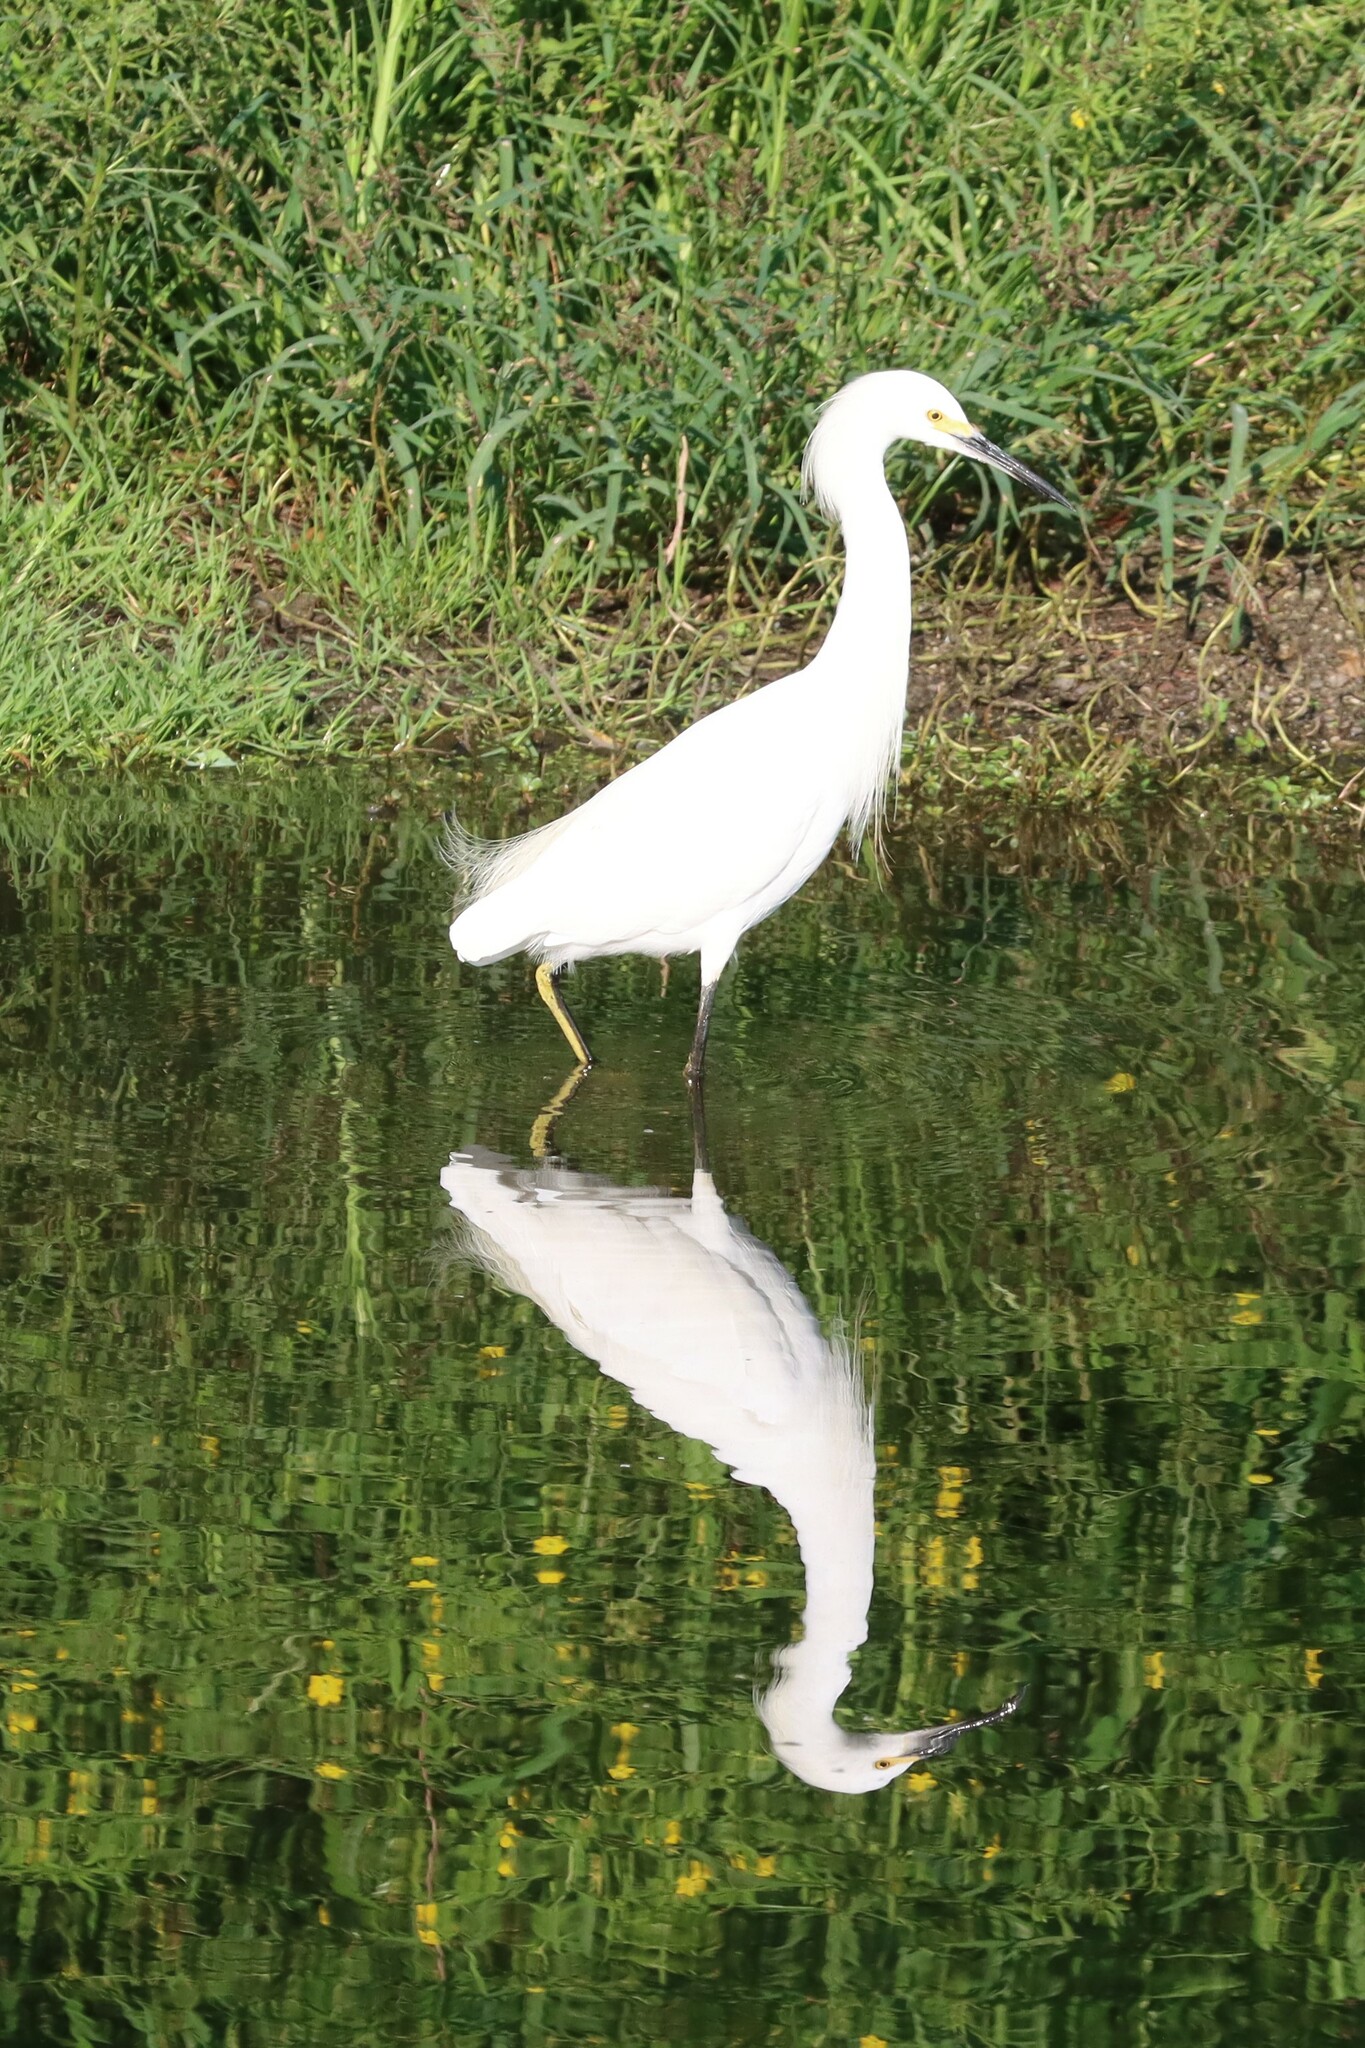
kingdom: Animalia
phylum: Chordata
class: Aves
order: Pelecaniformes
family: Ardeidae
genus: Egretta
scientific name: Egretta thula
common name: Snowy egret
